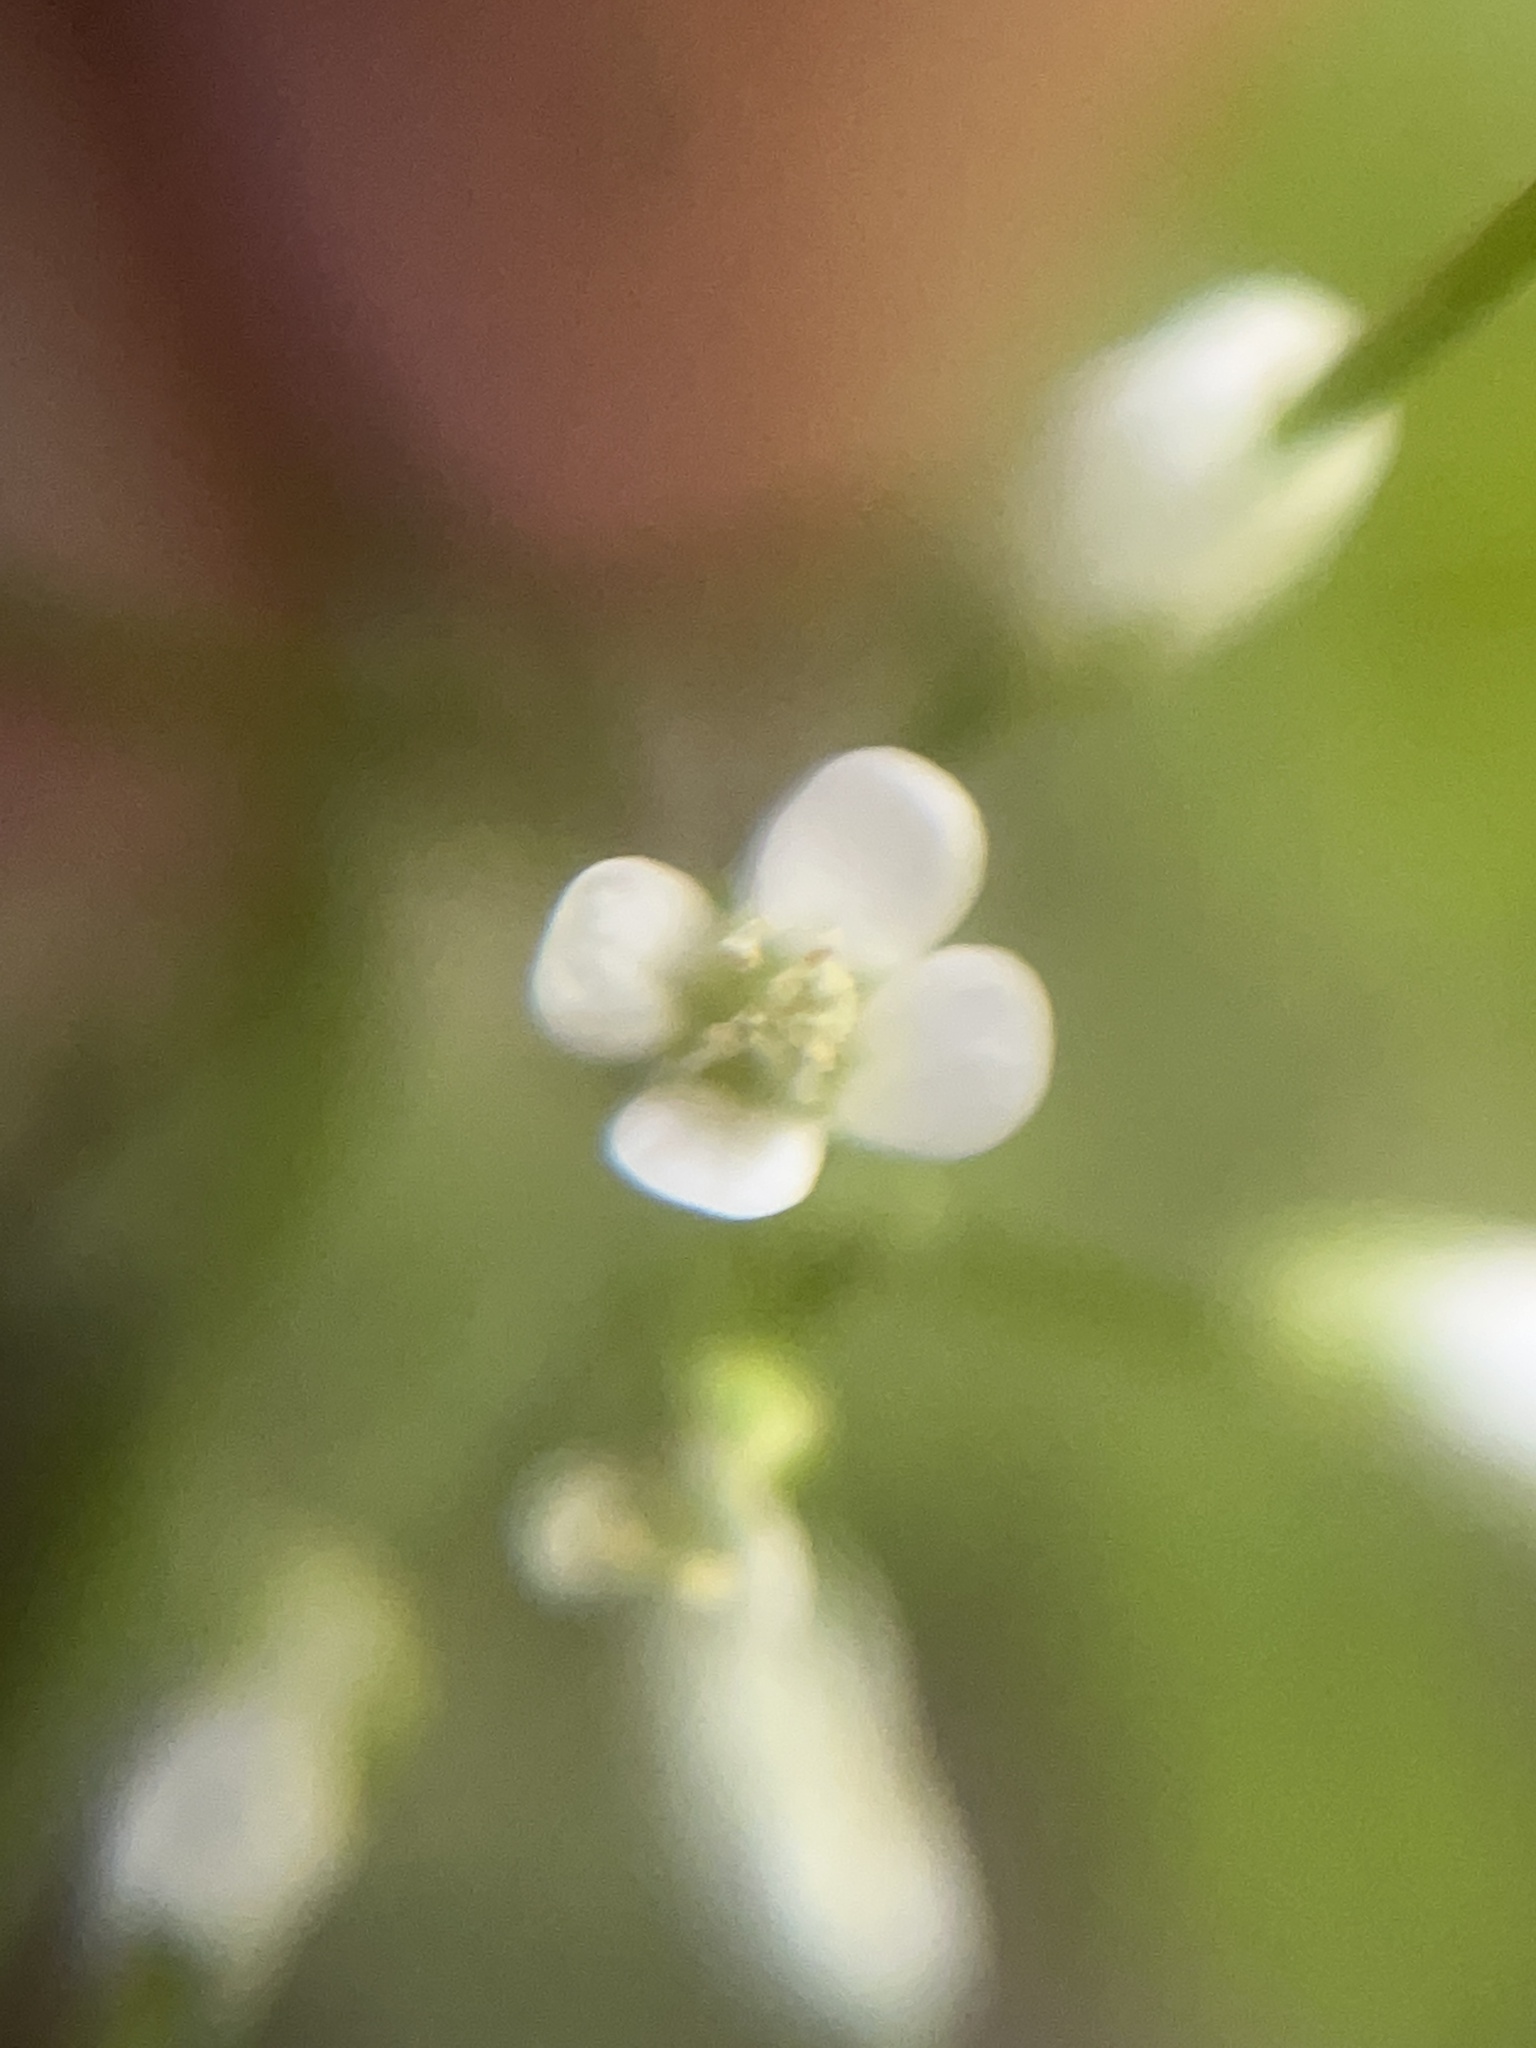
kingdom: Plantae
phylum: Tracheophyta
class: Magnoliopsida
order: Brassicales
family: Brassicaceae
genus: Cardamine
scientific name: Cardamine flexuosa
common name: Woodland bittercress
